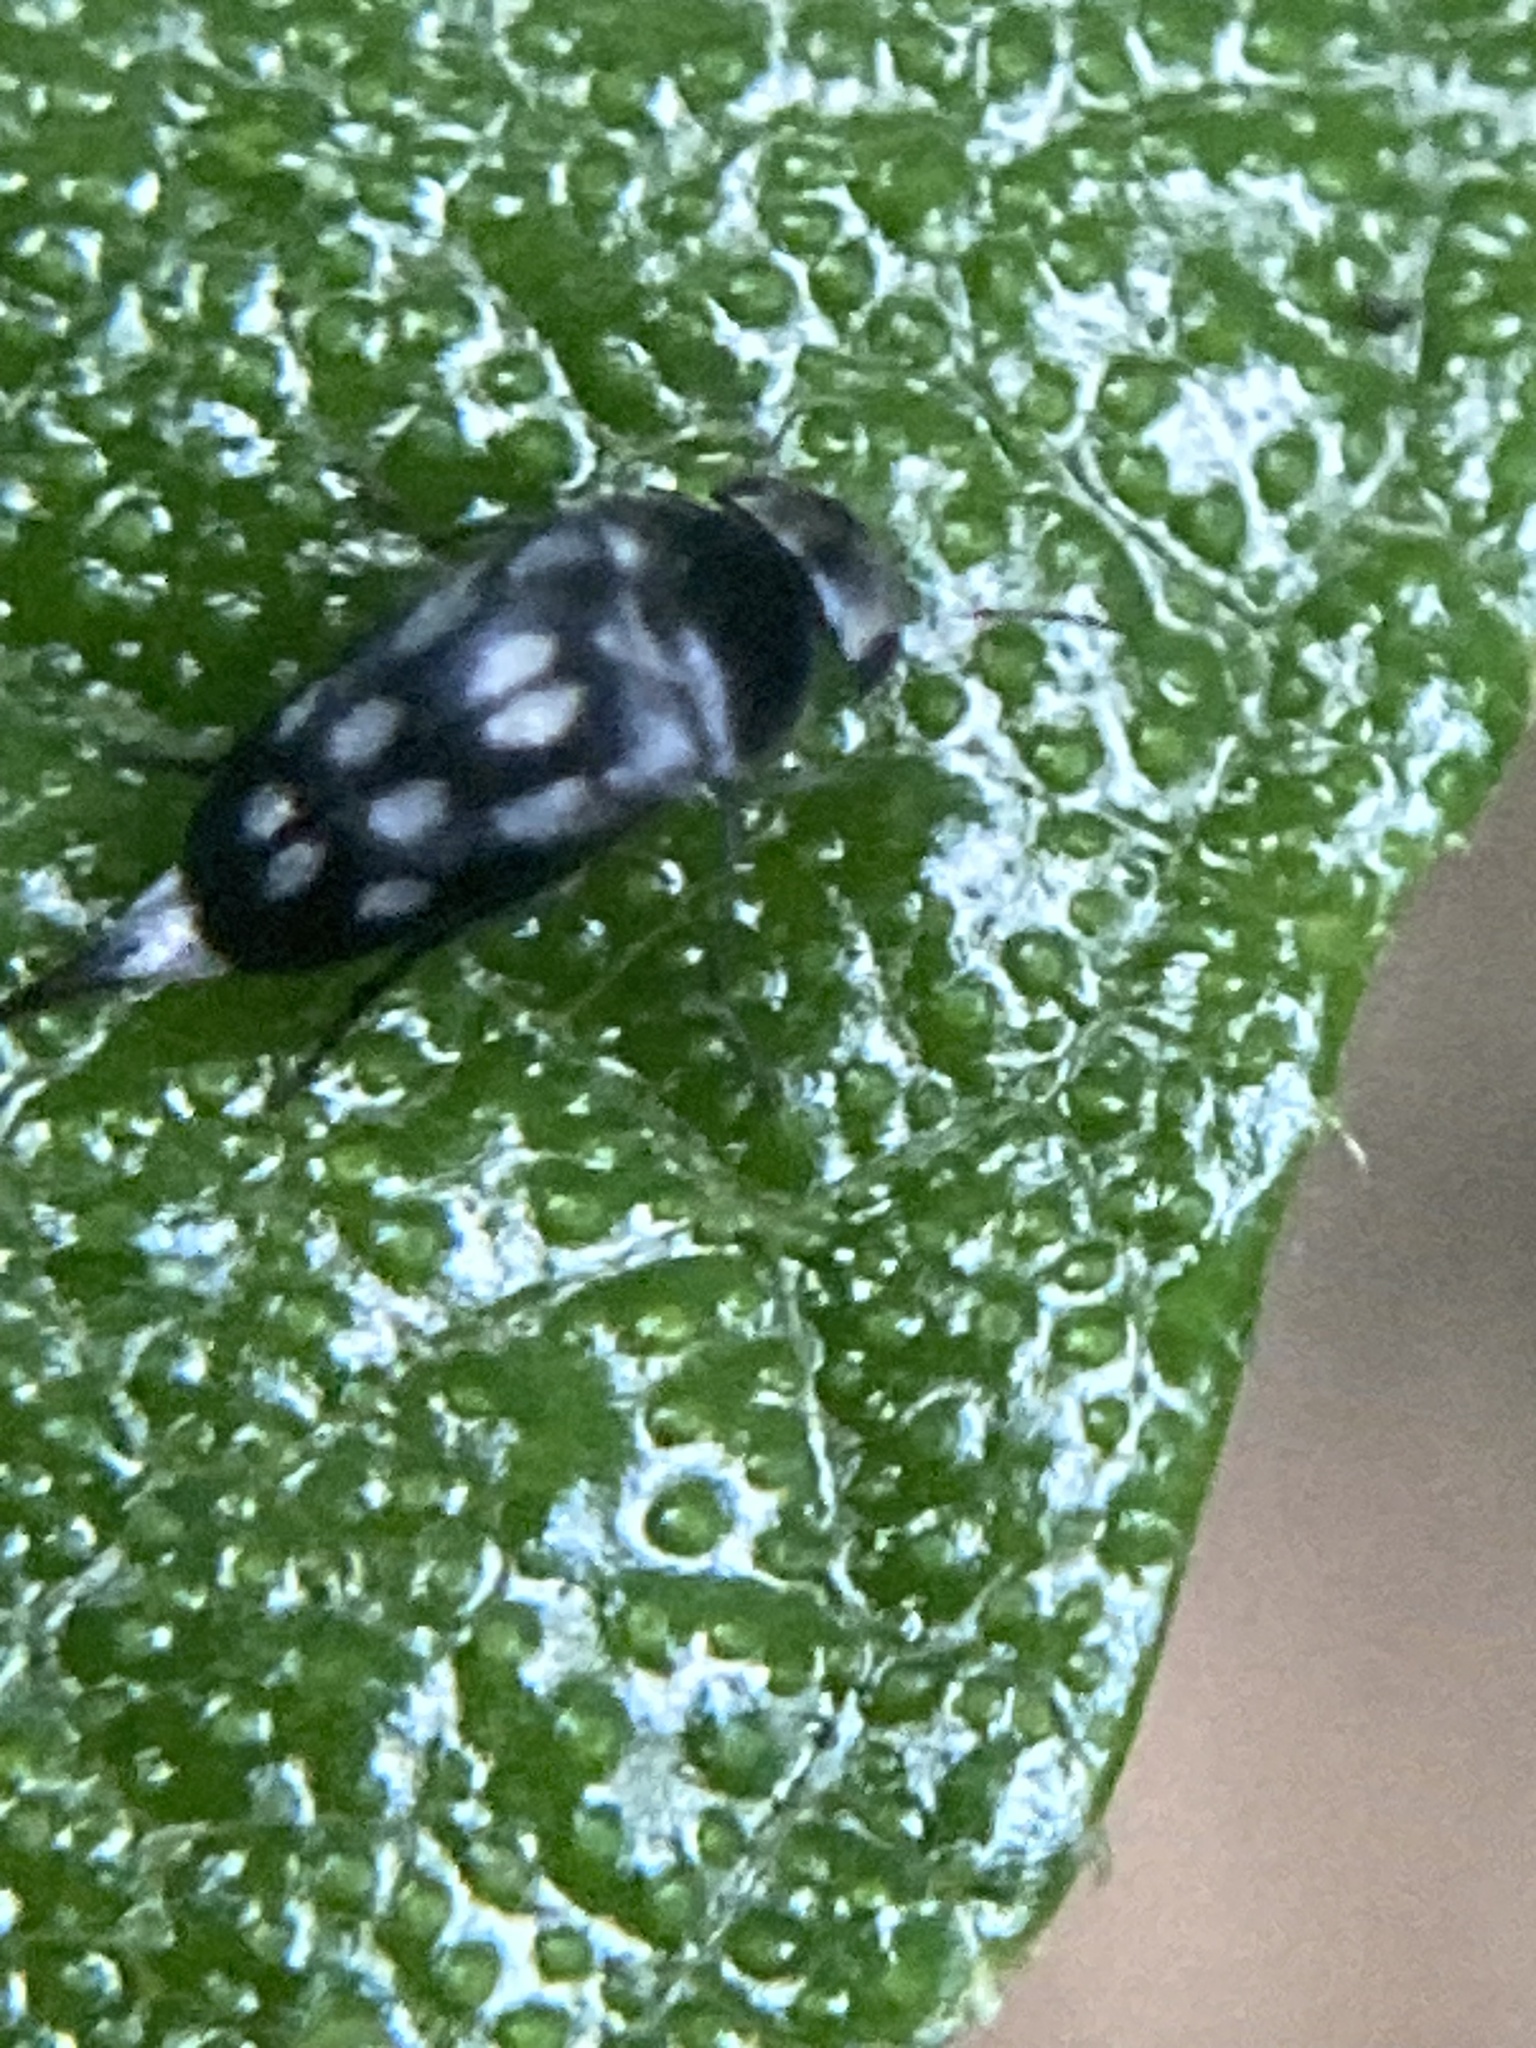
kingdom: Animalia
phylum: Arthropoda
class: Insecta
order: Coleoptera
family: Mordellidae
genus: Mordella
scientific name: Mordella
